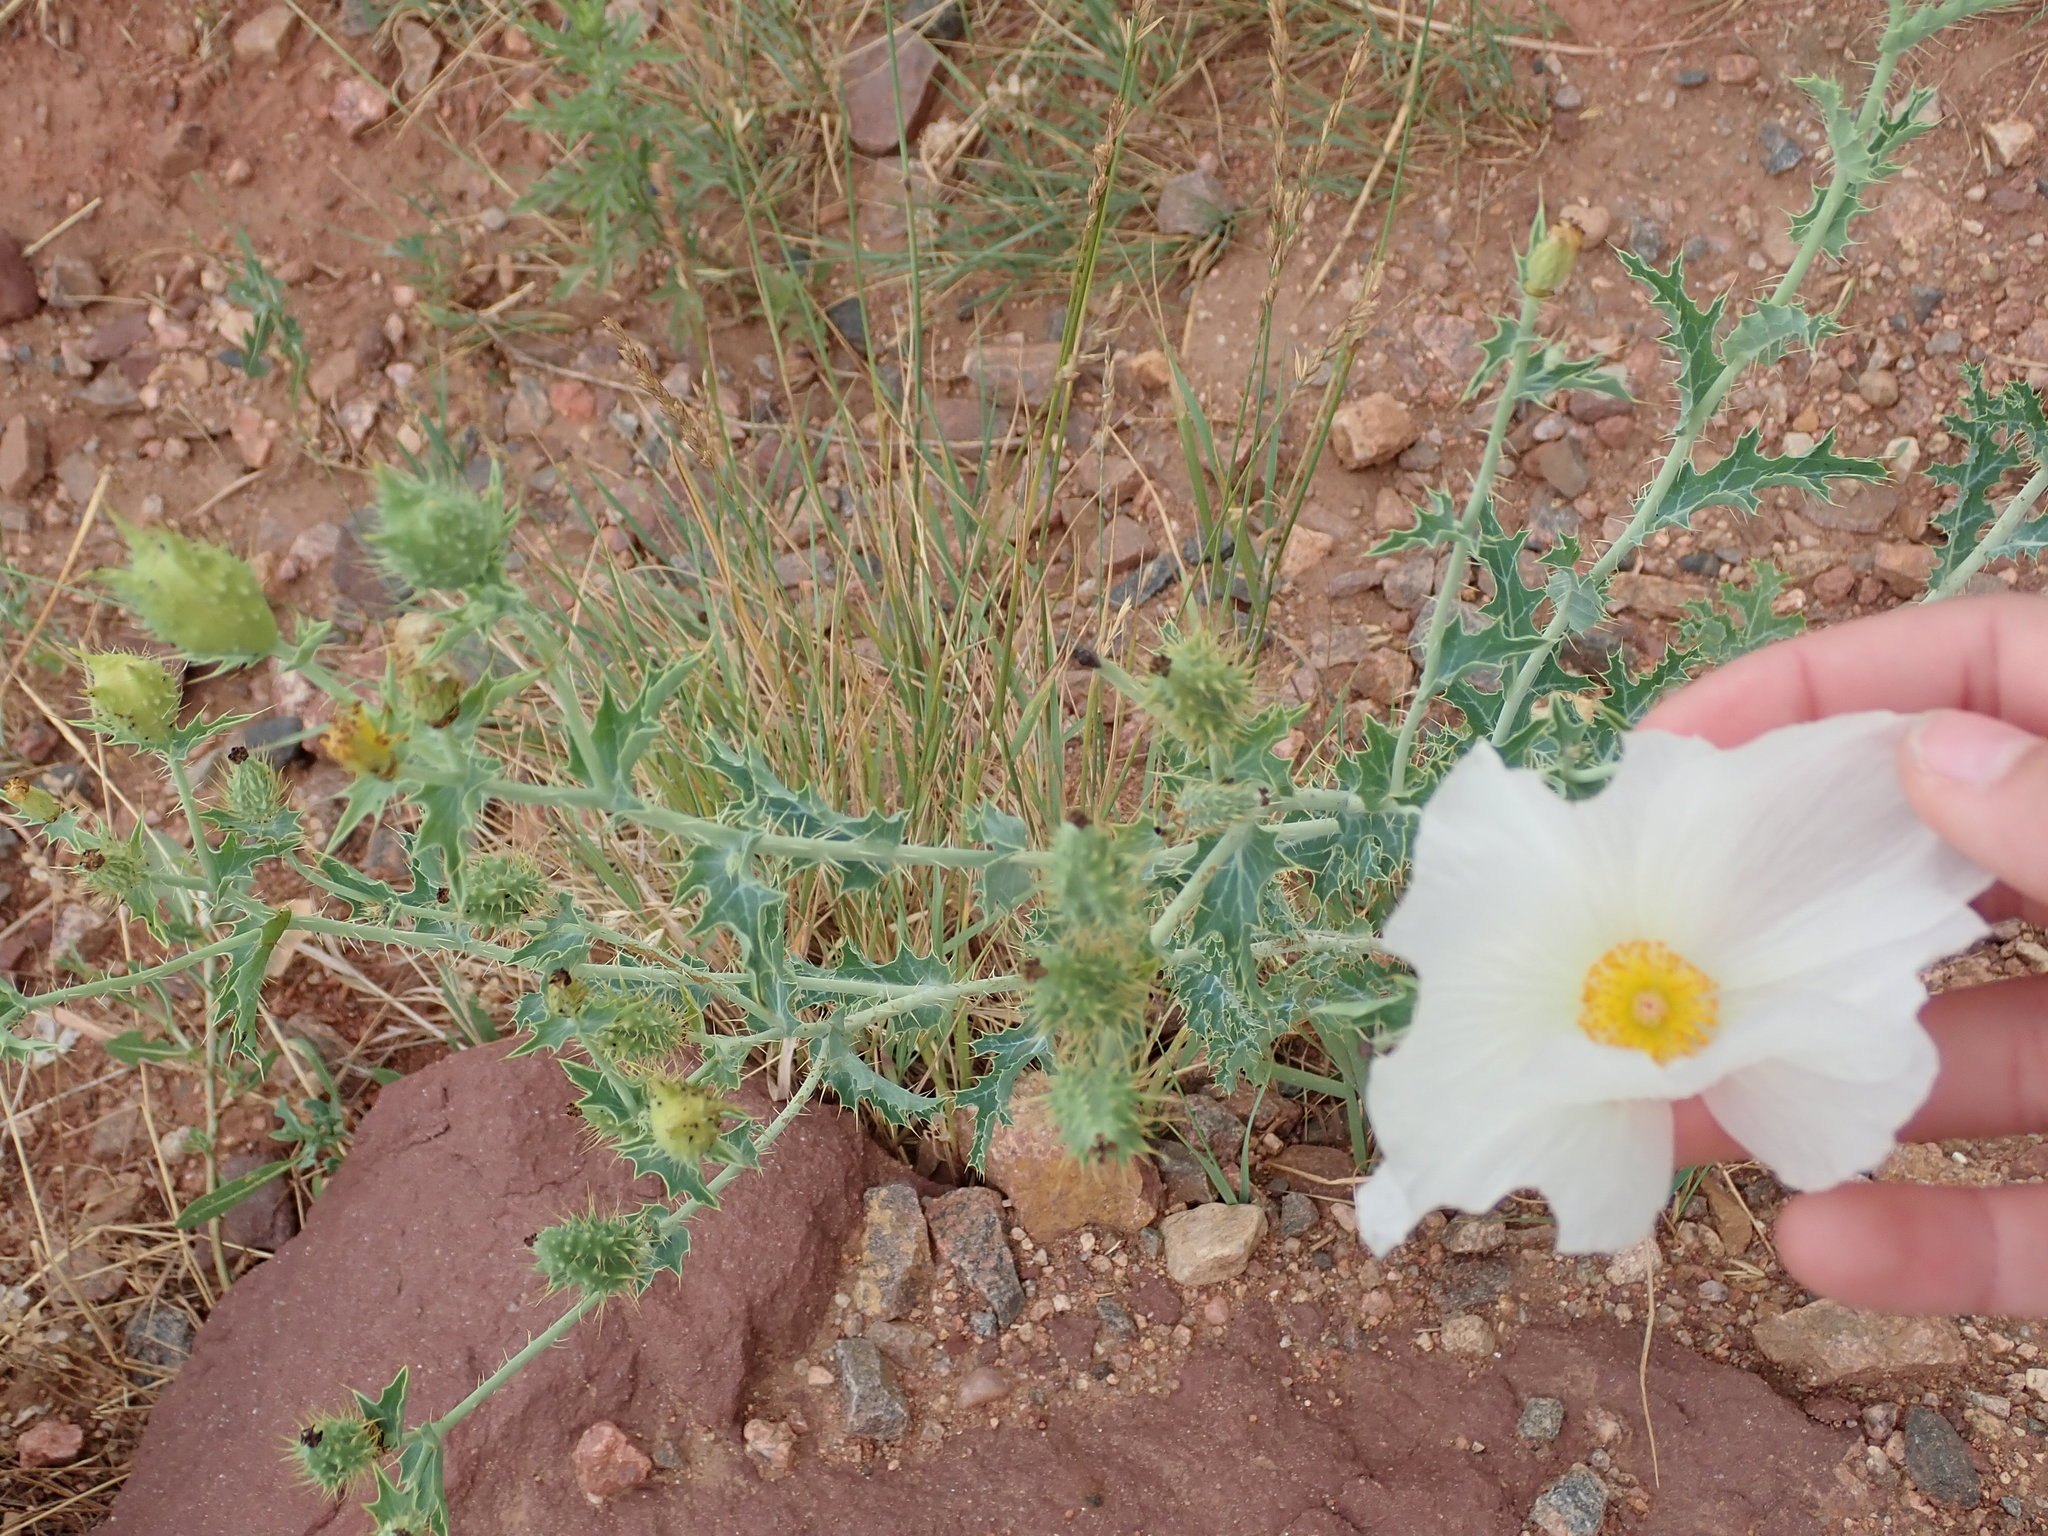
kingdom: Plantae
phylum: Tracheophyta
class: Magnoliopsida
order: Ranunculales
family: Papaveraceae
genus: Argemone
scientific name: Argemone polyanthemos
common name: Plains prickly-poppy
